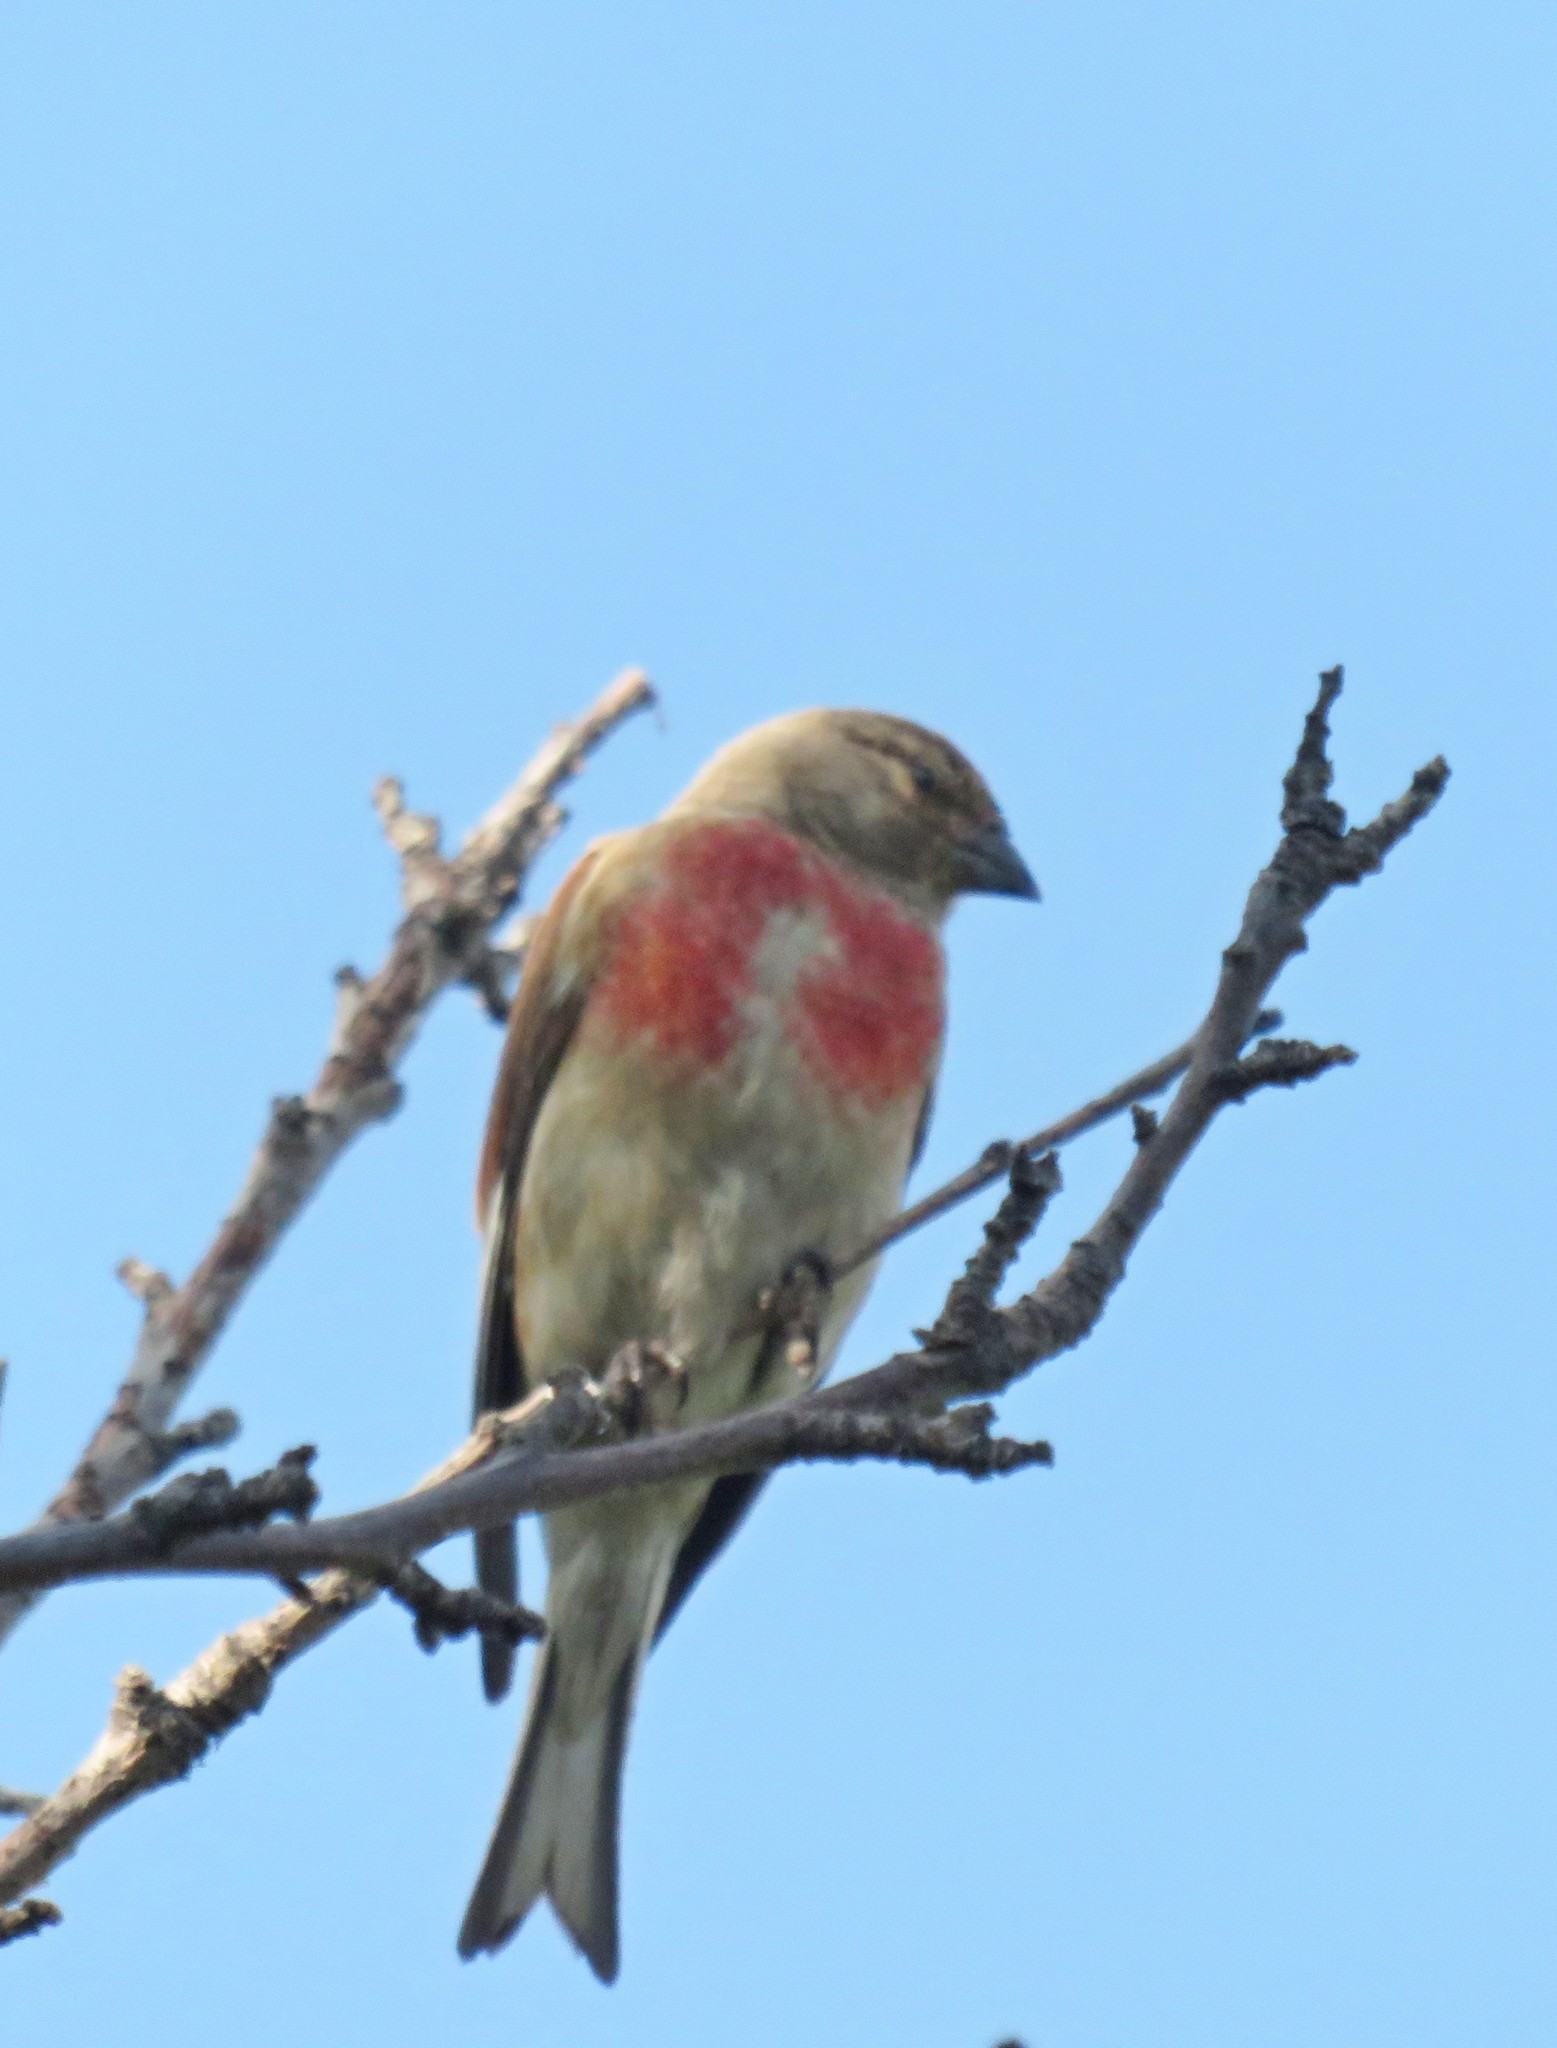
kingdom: Animalia
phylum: Chordata
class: Aves
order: Passeriformes
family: Fringillidae
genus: Linaria
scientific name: Linaria cannabina
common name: Common linnet
